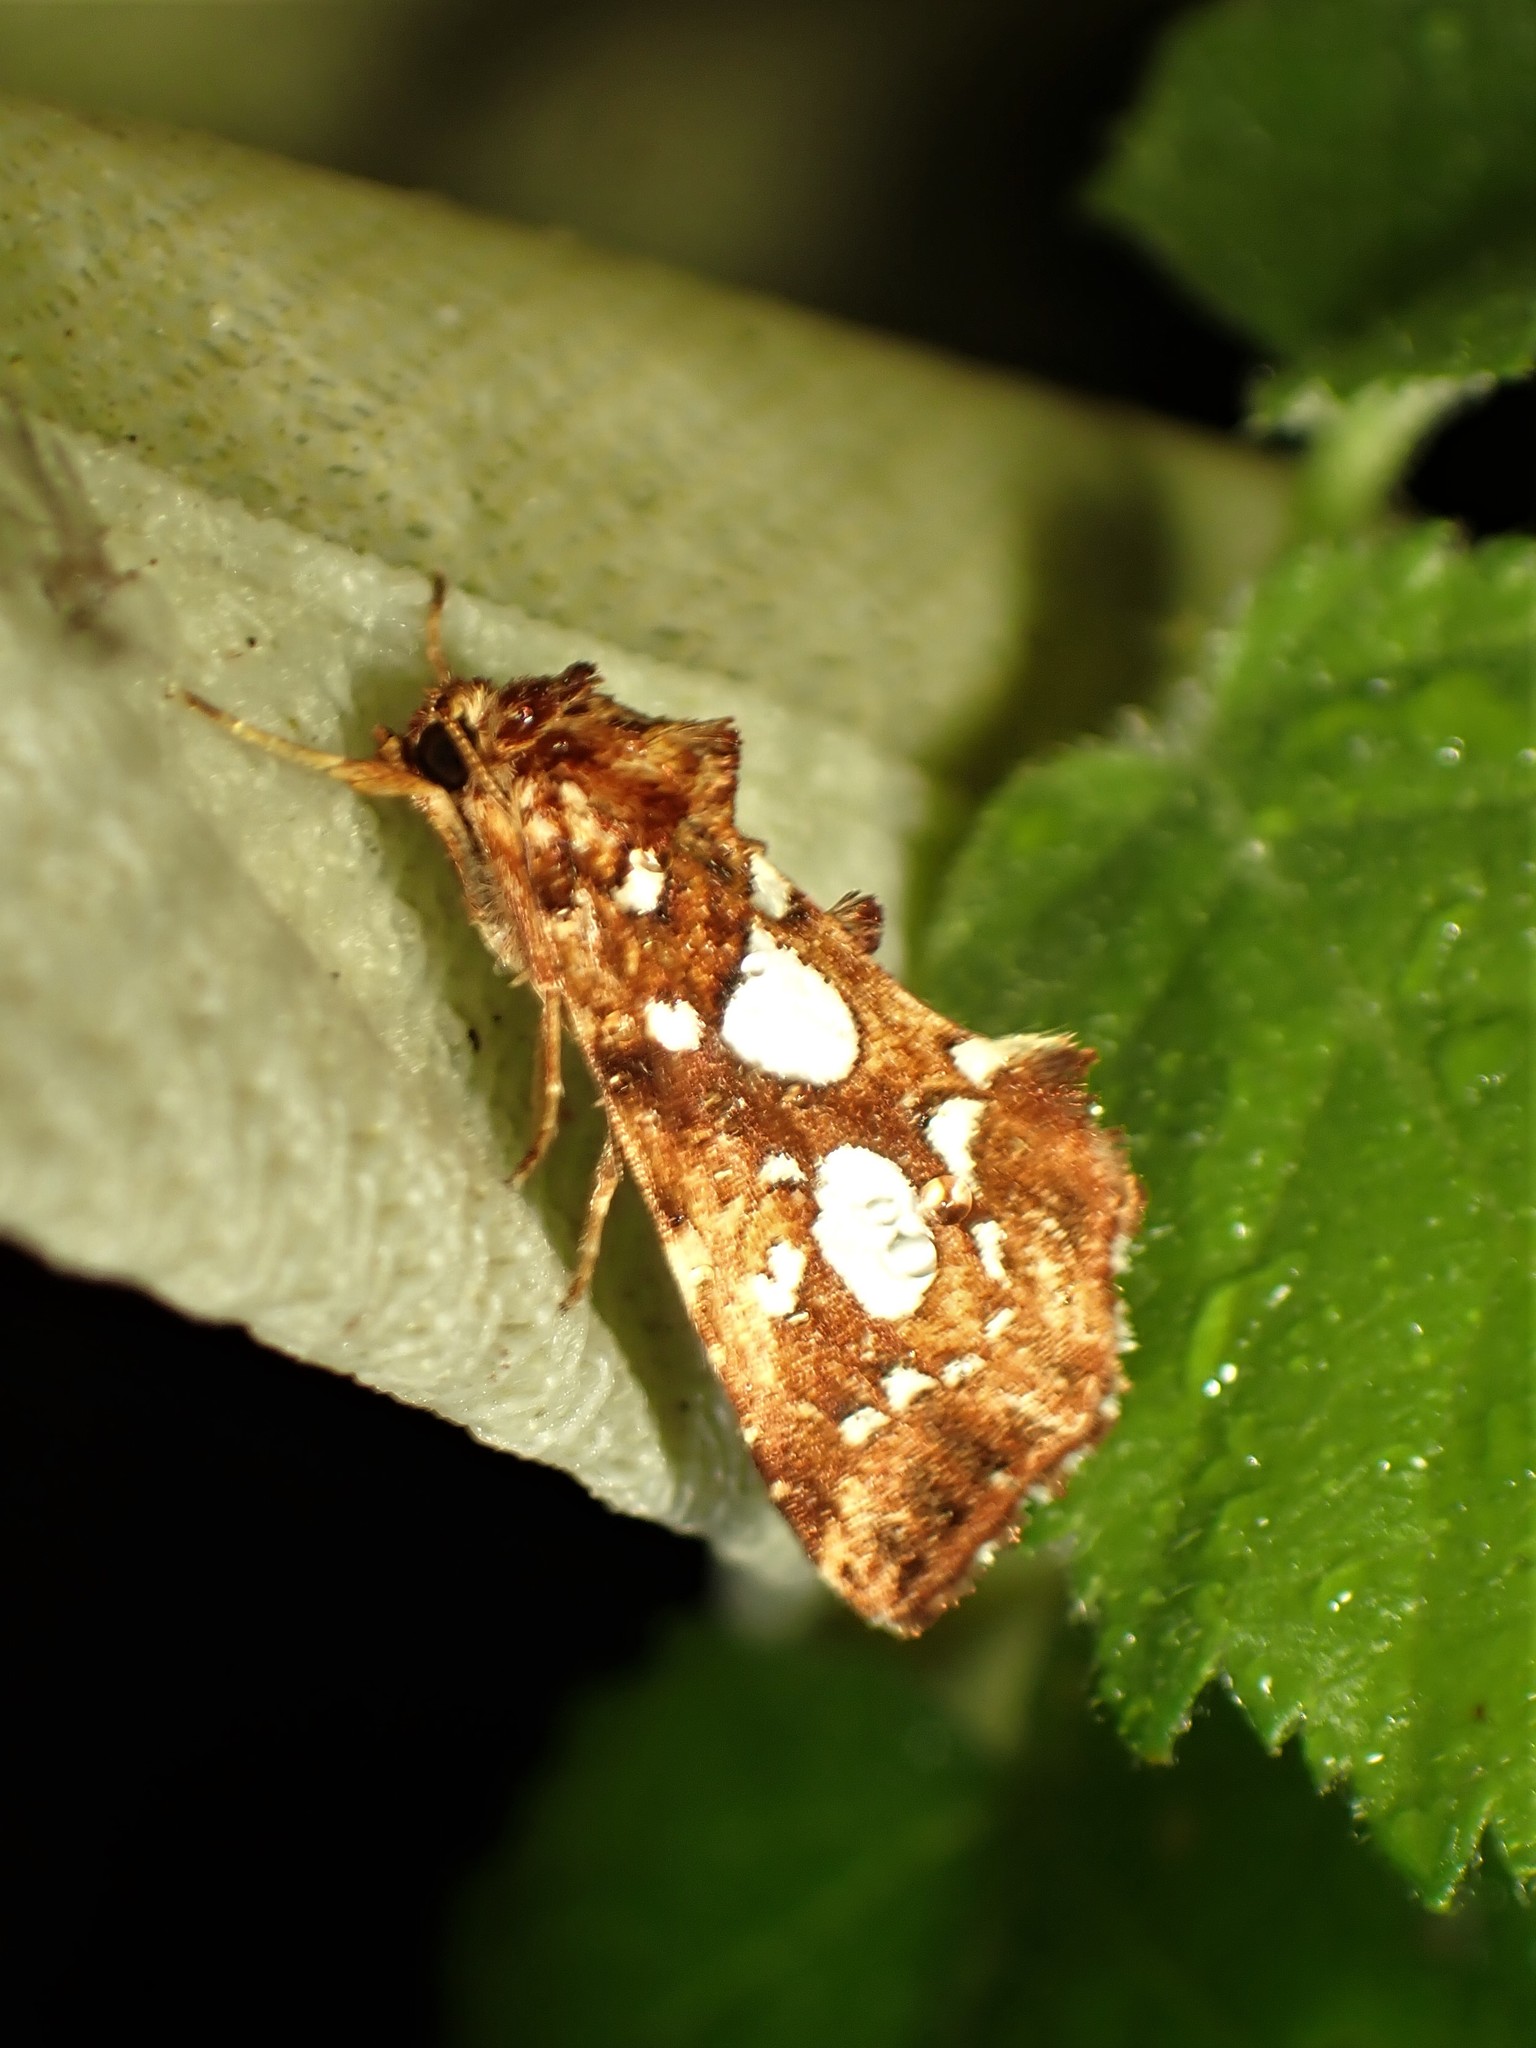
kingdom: Animalia
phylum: Arthropoda
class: Insecta
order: Lepidoptera
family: Noctuidae
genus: Callopistria
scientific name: Callopistria cordata
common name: Silver-spotted fern moth
